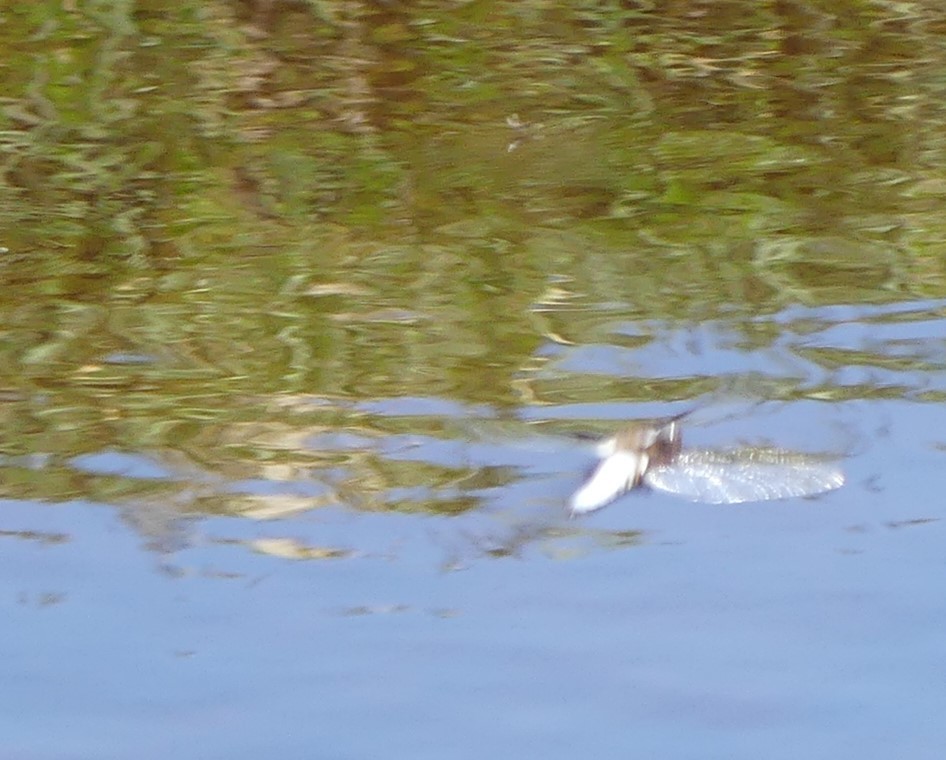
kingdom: Animalia
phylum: Arthropoda
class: Insecta
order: Odonata
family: Libellulidae
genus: Libellula
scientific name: Libellula depressa
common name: Broad-bodied chaser
